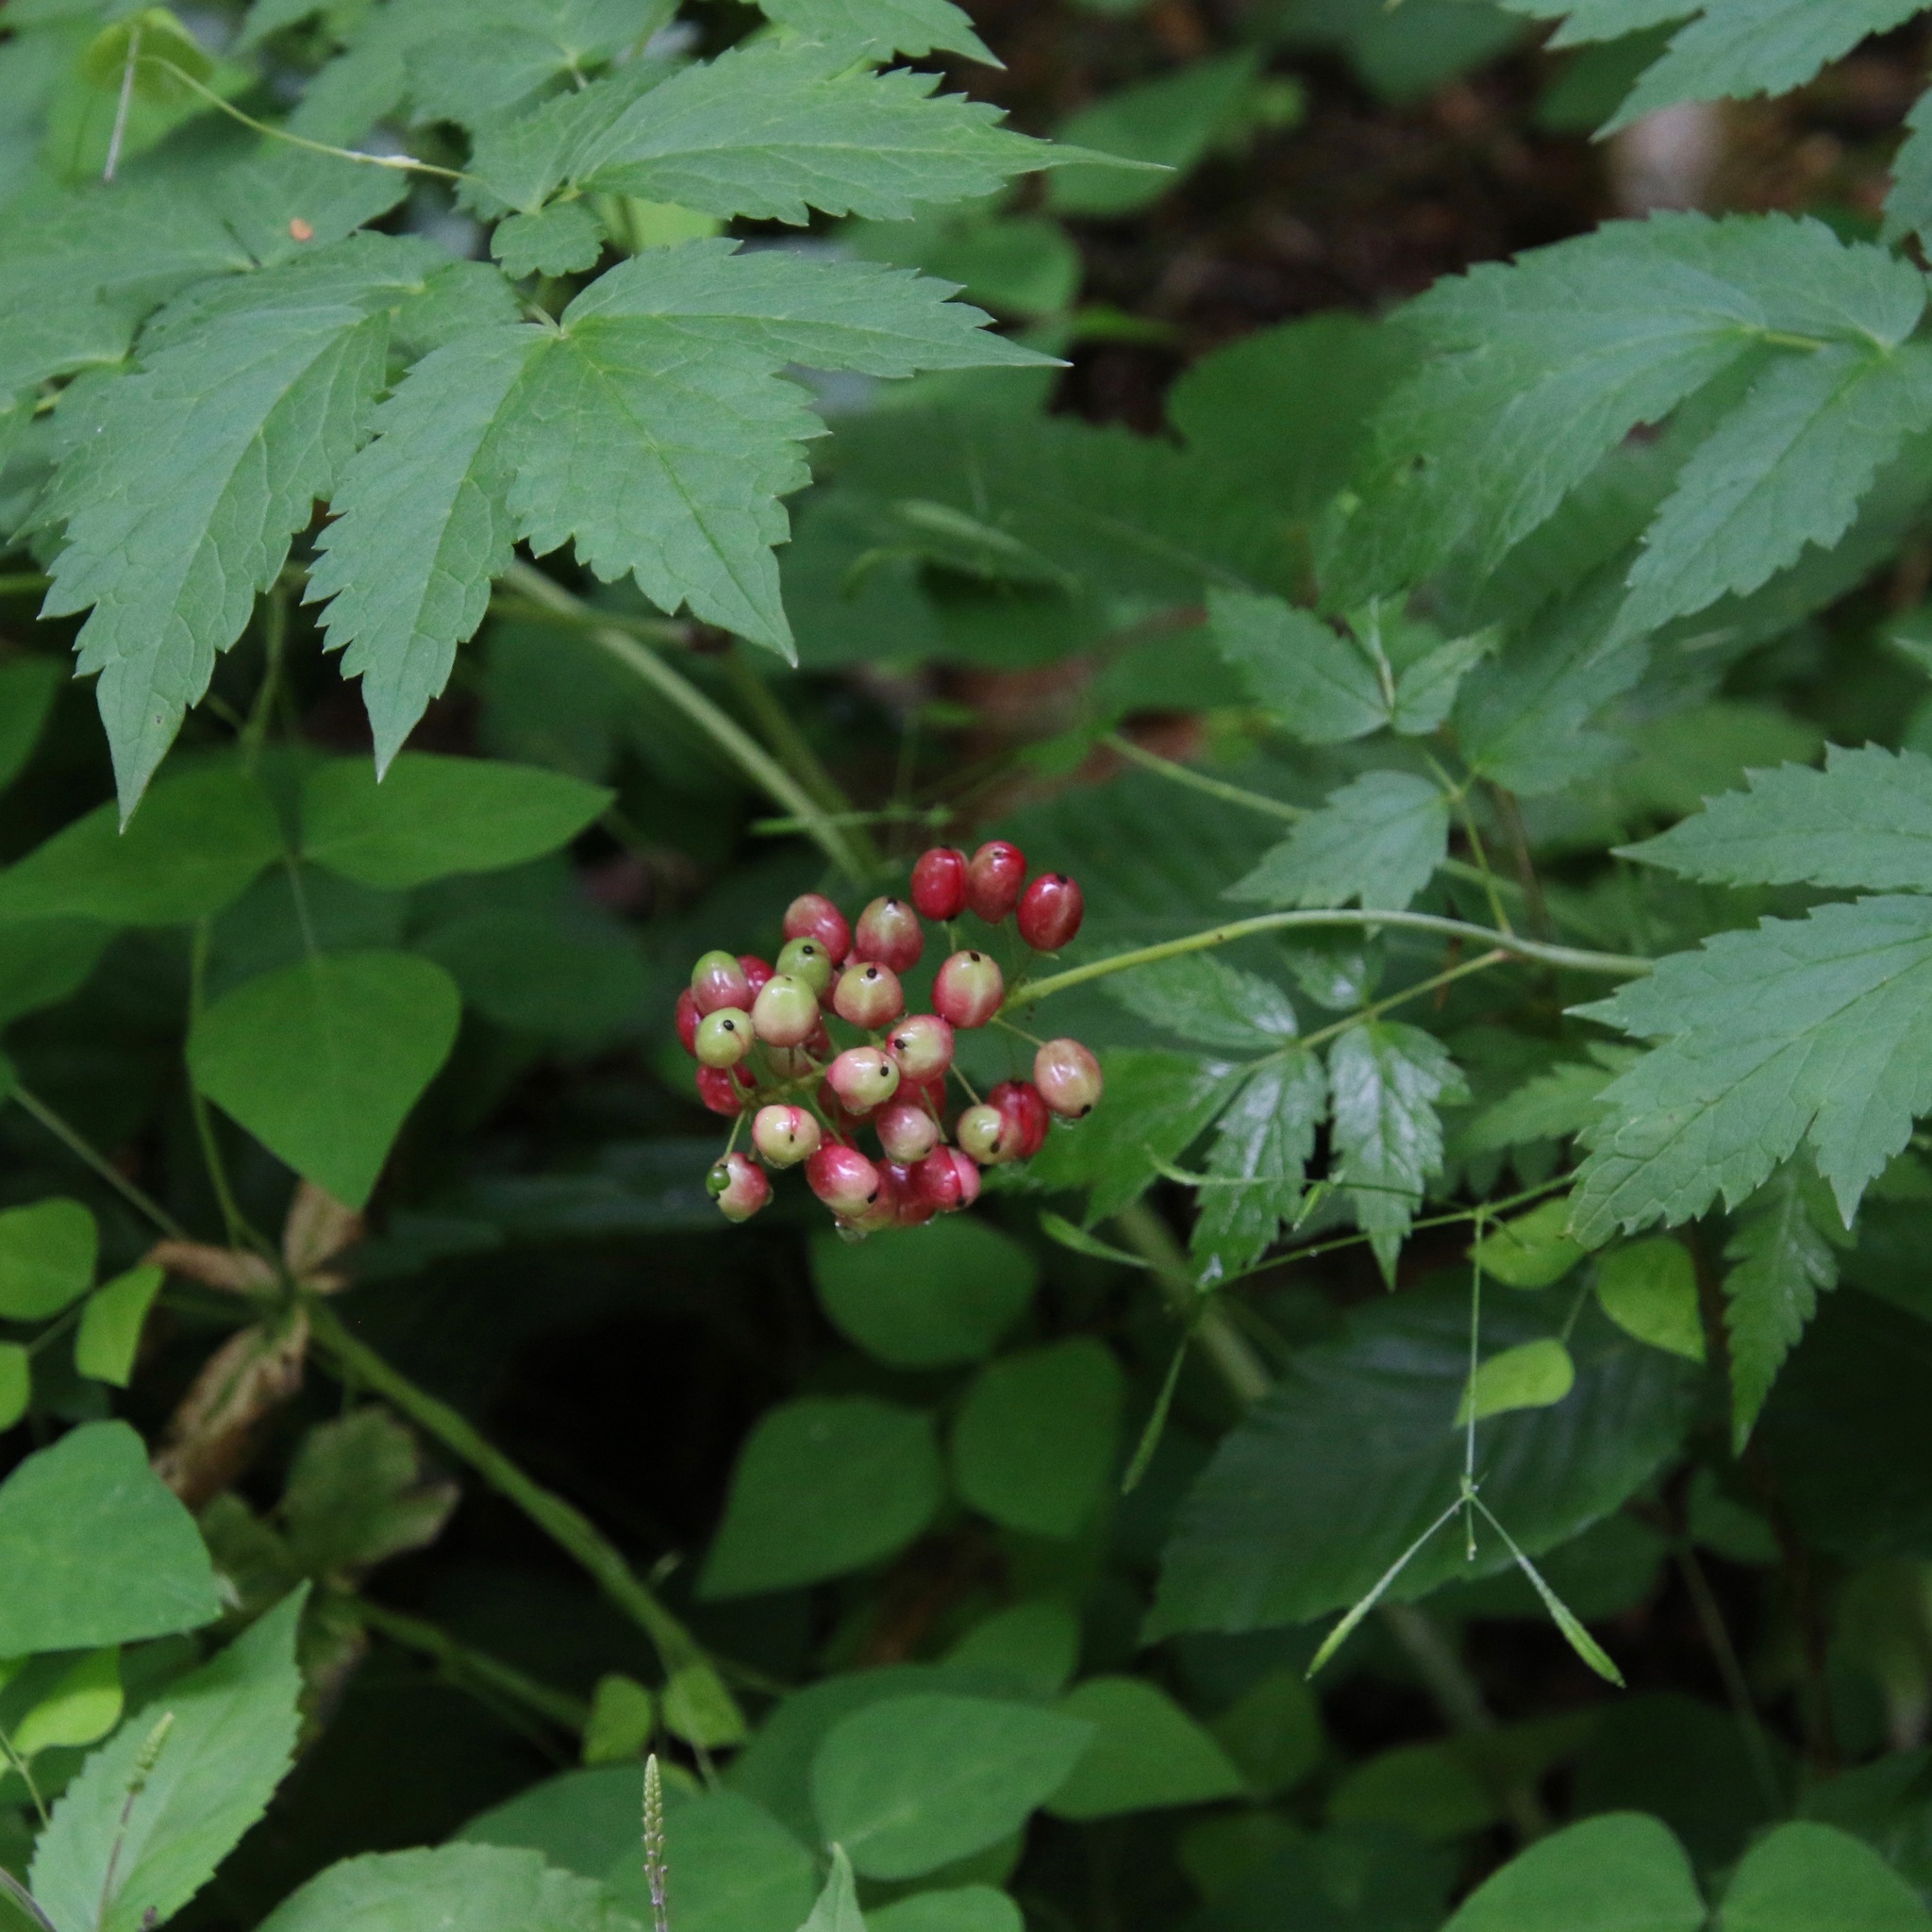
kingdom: Plantae
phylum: Tracheophyta
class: Magnoliopsida
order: Ranunculales
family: Ranunculaceae
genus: Actaea
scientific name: Actaea rubra
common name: Red baneberry
